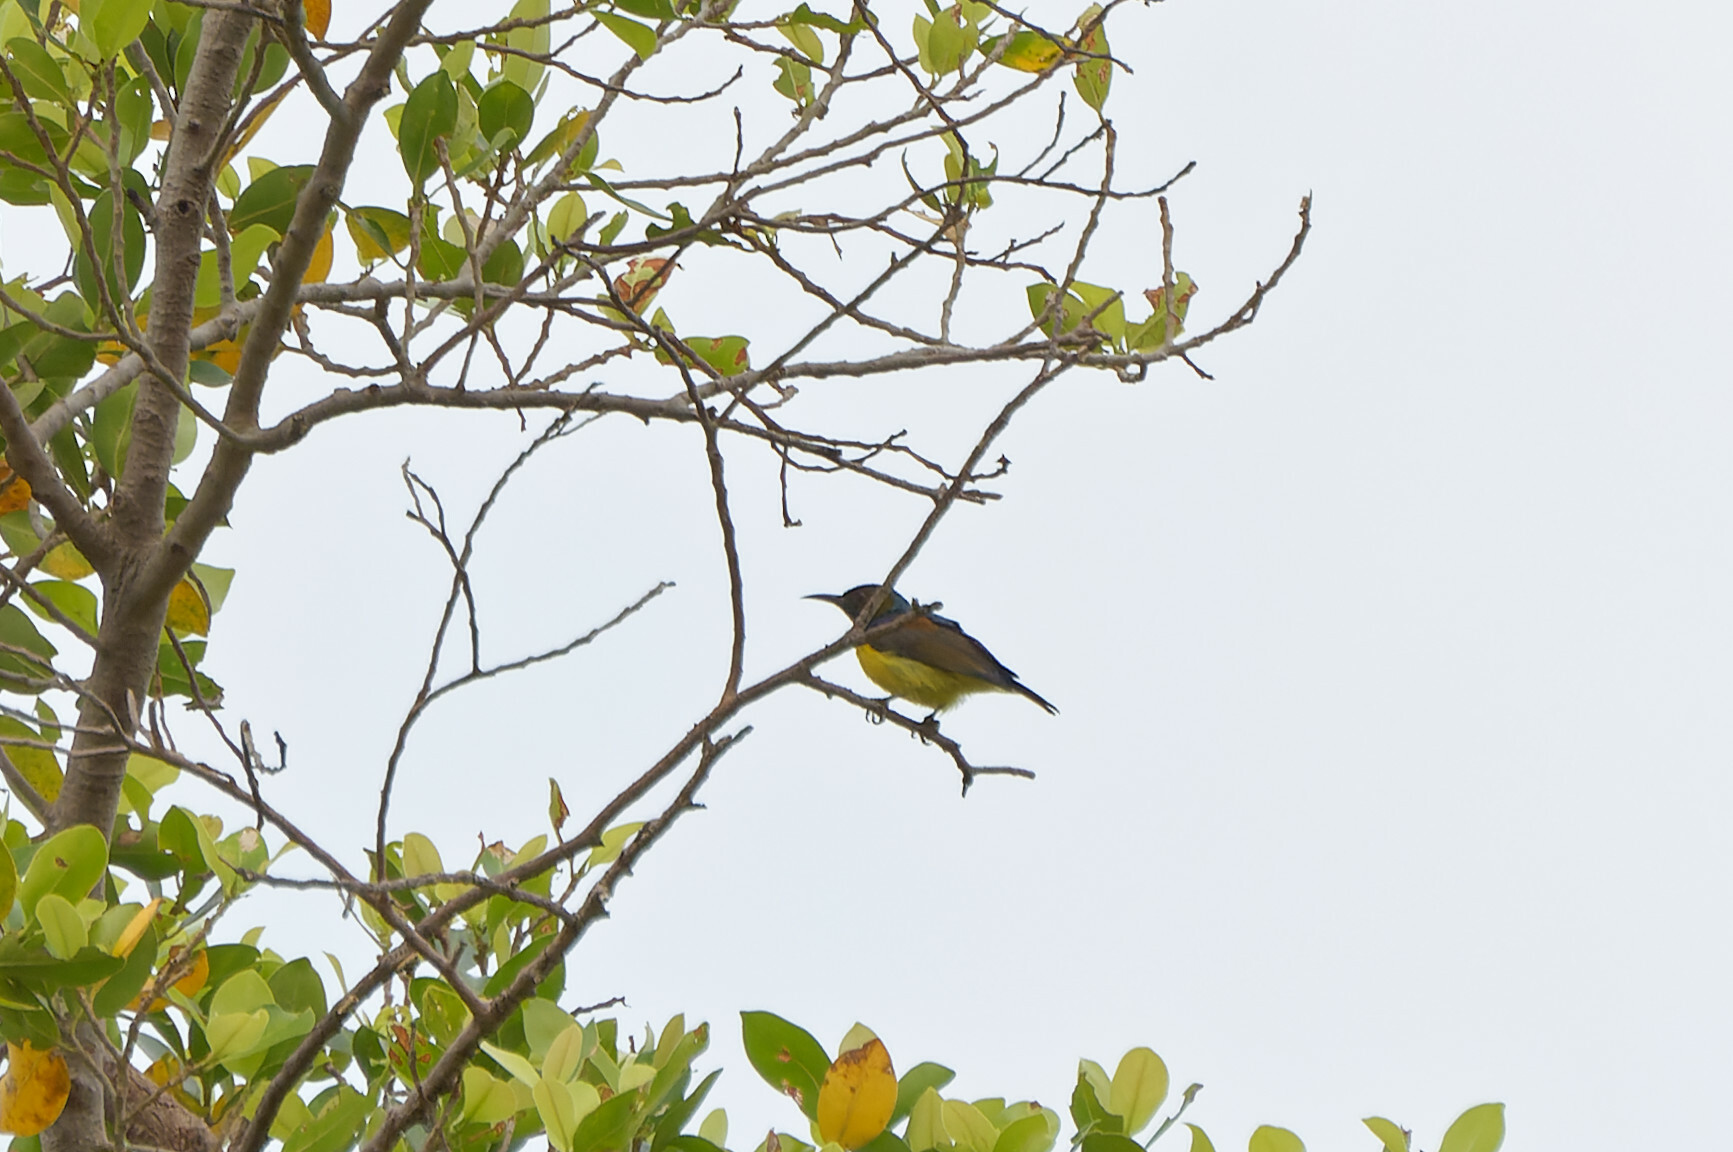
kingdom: Animalia
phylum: Chordata
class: Aves
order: Passeriformes
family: Nectariniidae
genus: Anthreptes
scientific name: Anthreptes malacensis
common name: Brown-throated sunbird
